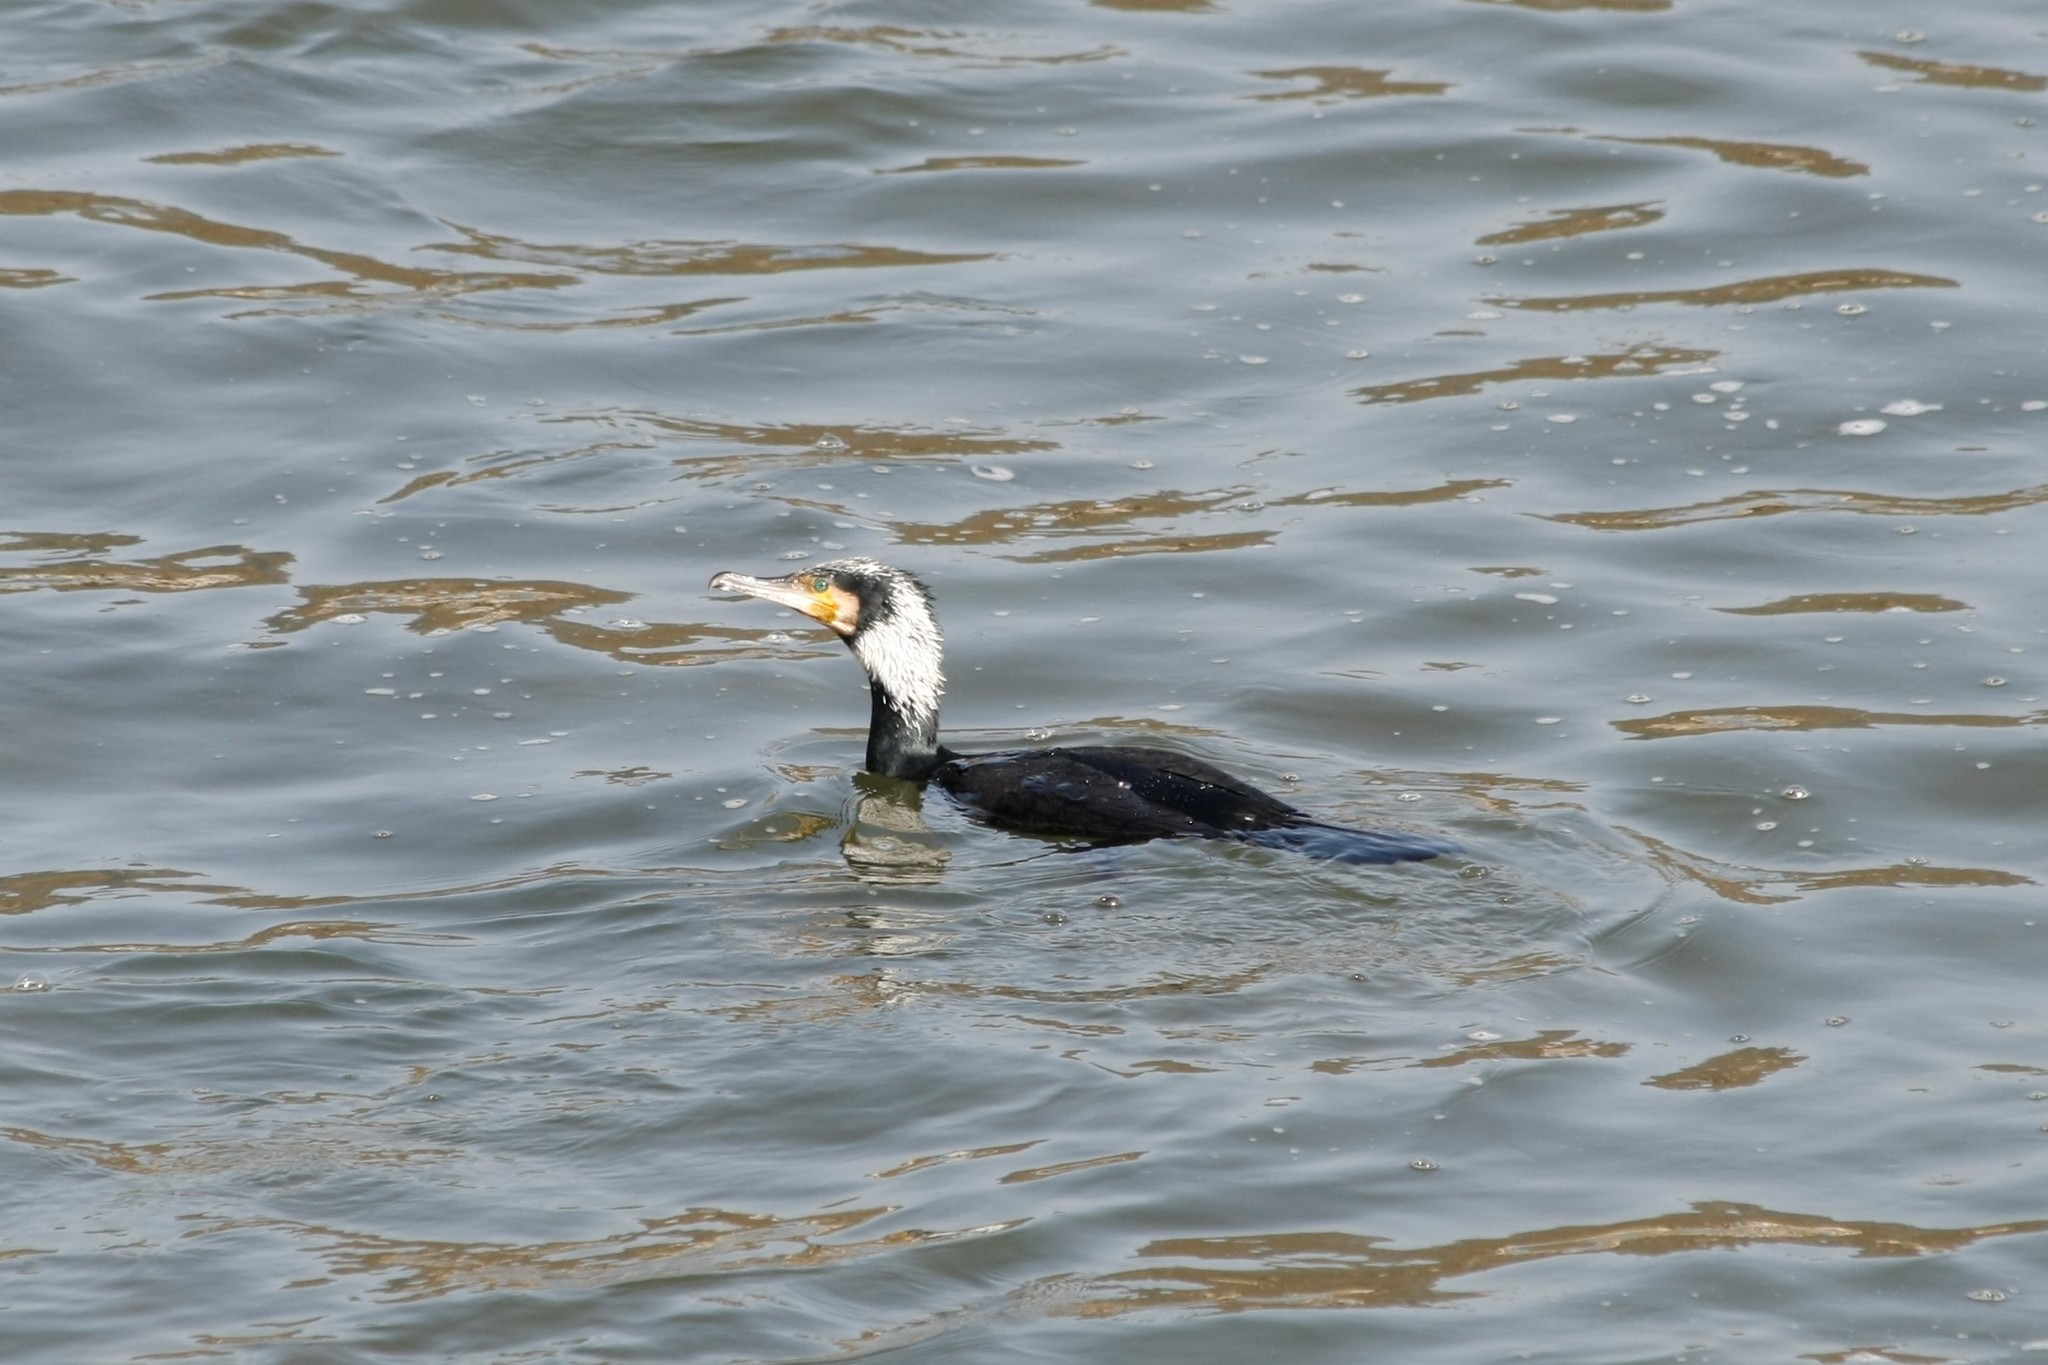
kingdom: Animalia
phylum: Chordata
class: Aves
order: Suliformes
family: Phalacrocoracidae
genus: Phalacrocorax
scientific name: Phalacrocorax carbo
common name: Great cormorant
